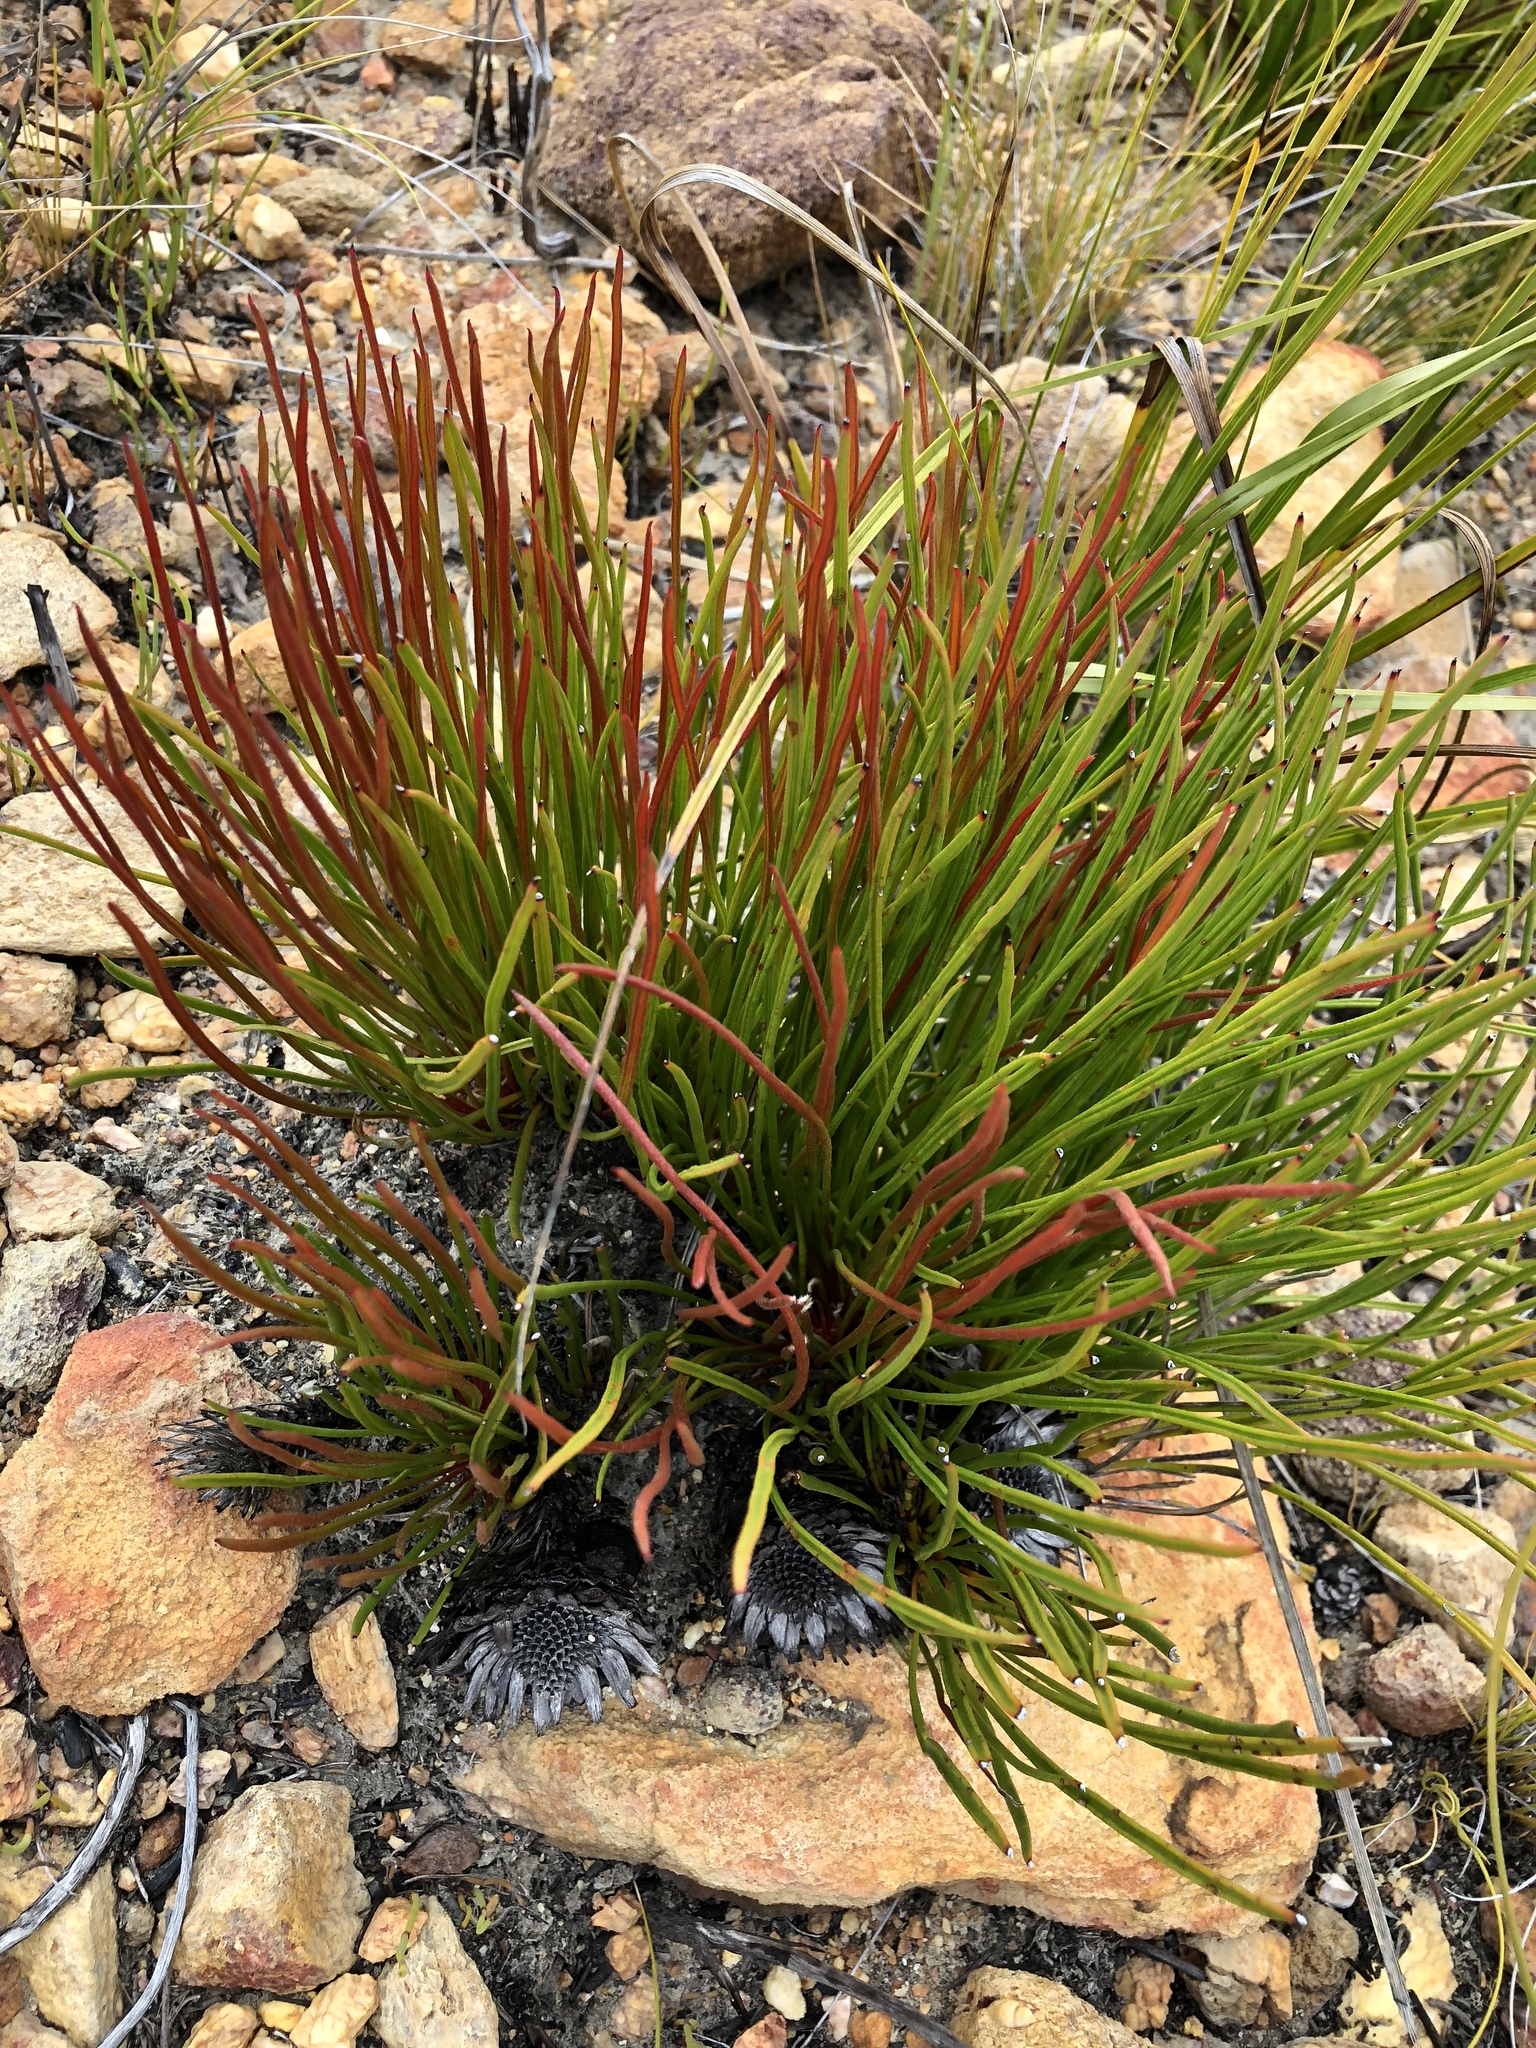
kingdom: Plantae
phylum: Tracheophyta
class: Magnoliopsida
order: Proteales
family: Proteaceae
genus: Protea
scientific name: Protea piscina
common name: Visgat sugarbush
